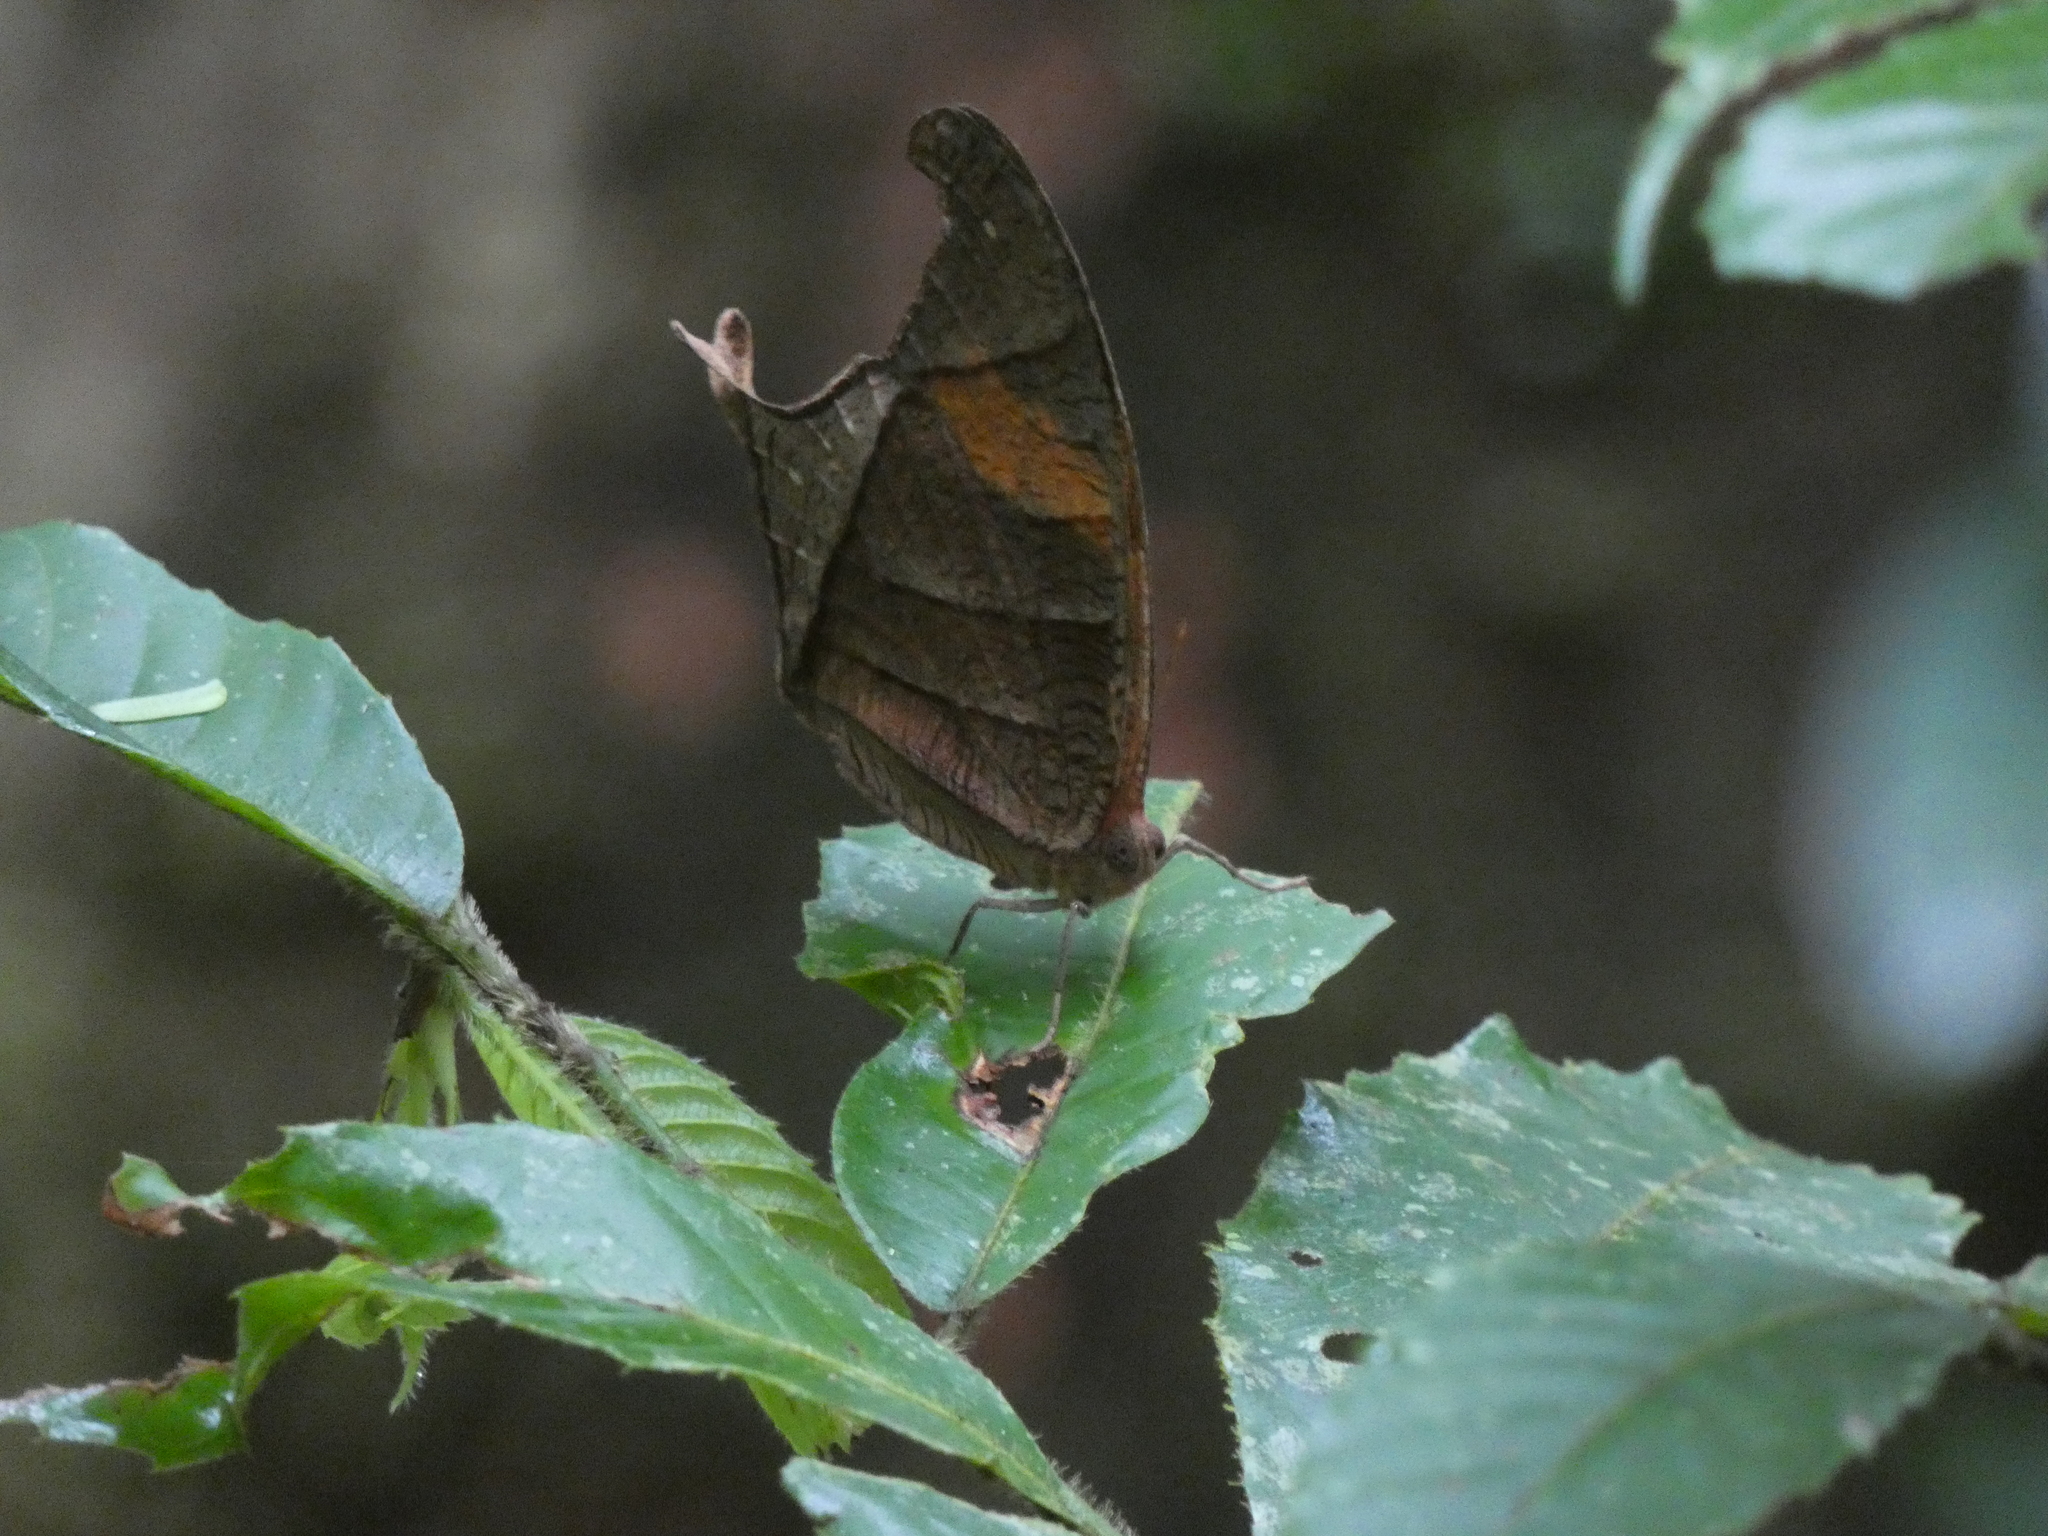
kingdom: Animalia
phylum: Arthropoda
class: Insecta
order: Lepidoptera
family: Nymphalidae
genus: Caerois
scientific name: Caerois chorinaeus
